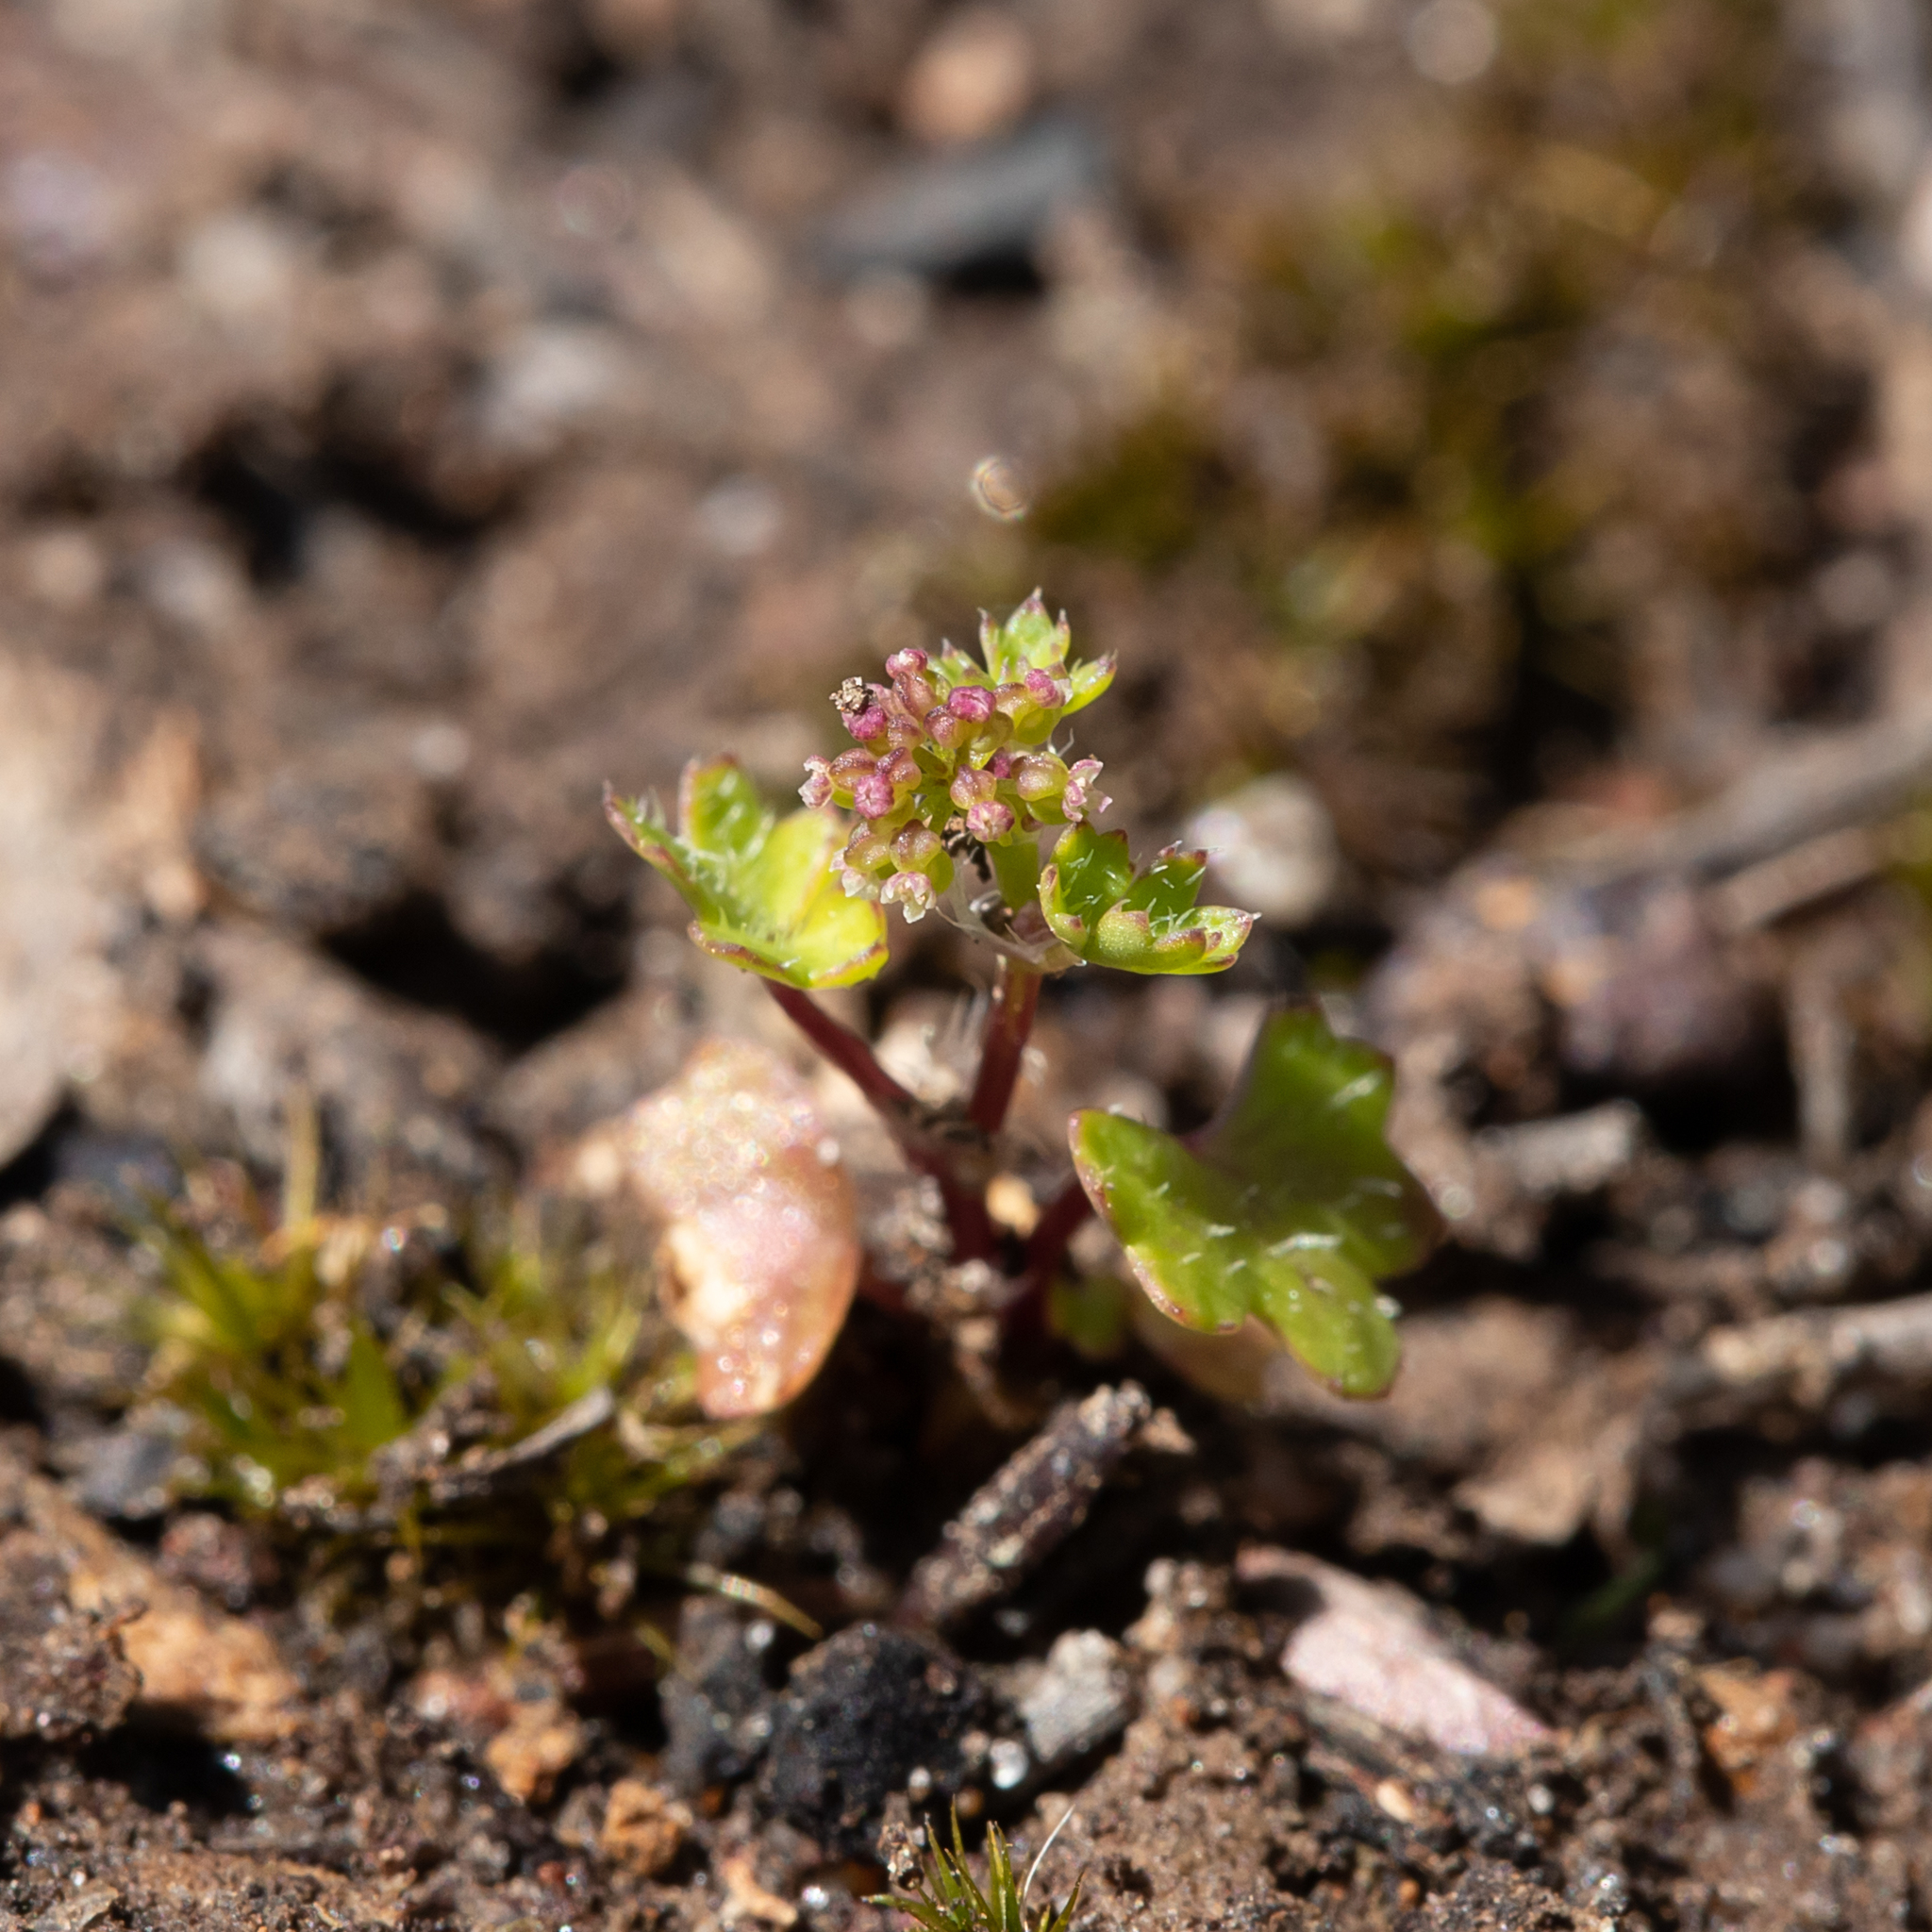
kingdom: Plantae
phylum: Tracheophyta
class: Magnoliopsida
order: Apiales
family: Araliaceae
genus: Hydrocotyle
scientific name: Hydrocotyle callicarpa
